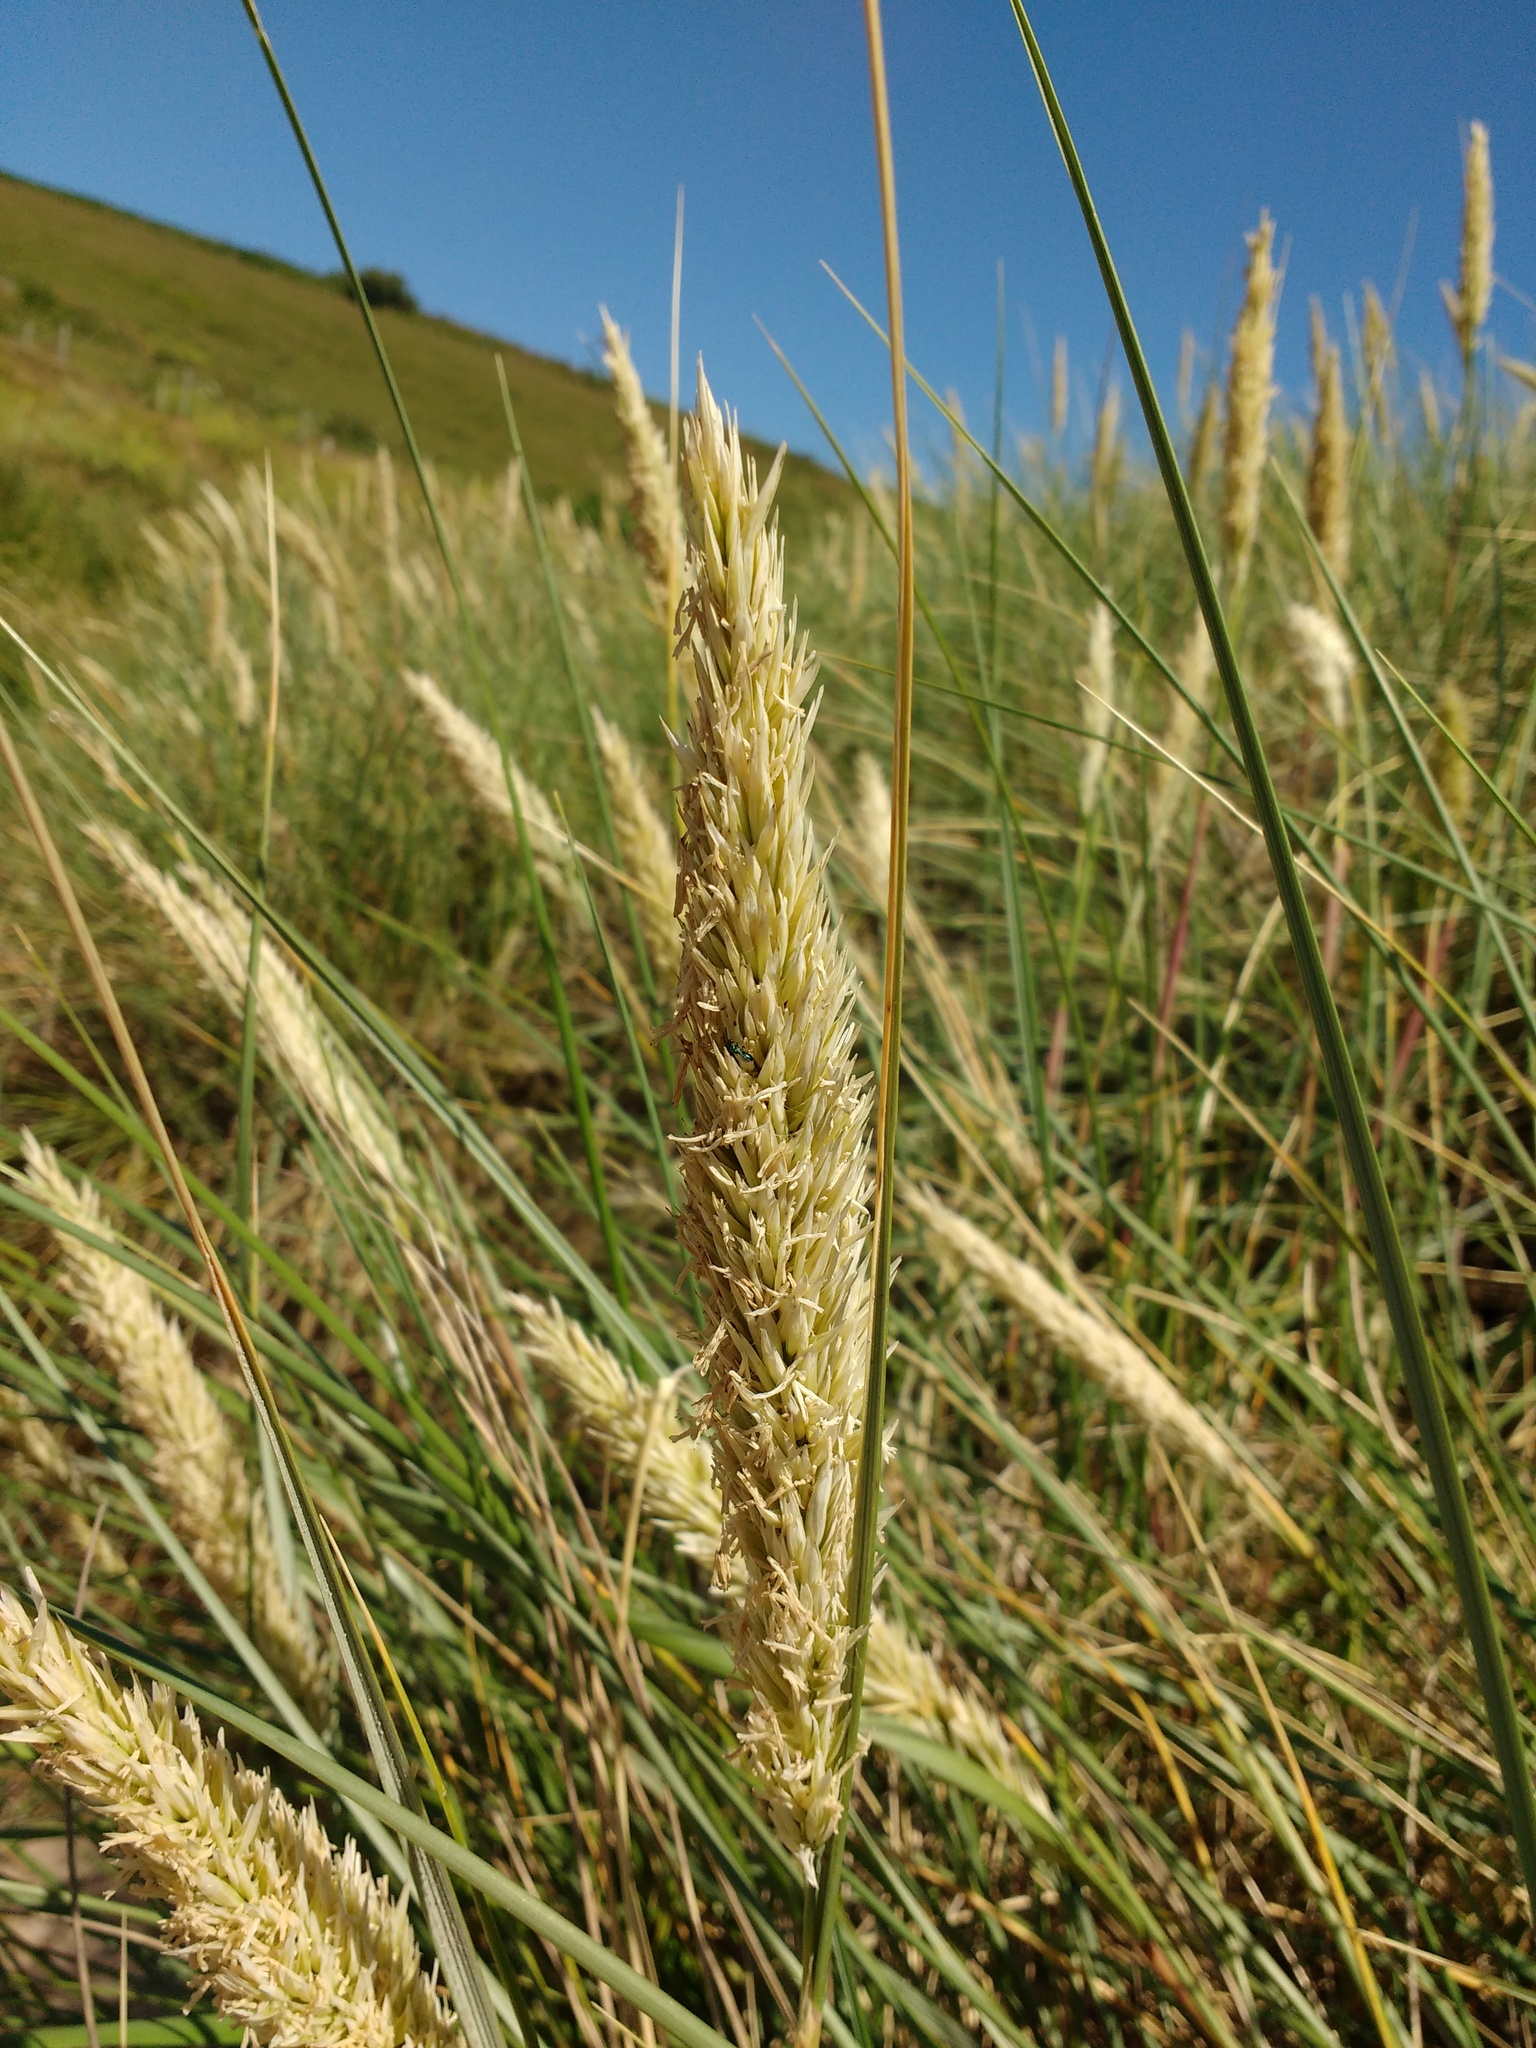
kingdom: Plantae
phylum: Tracheophyta
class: Liliopsida
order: Poales
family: Poaceae
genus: Calamagrostis
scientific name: Calamagrostis arenaria
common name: European beachgrass
